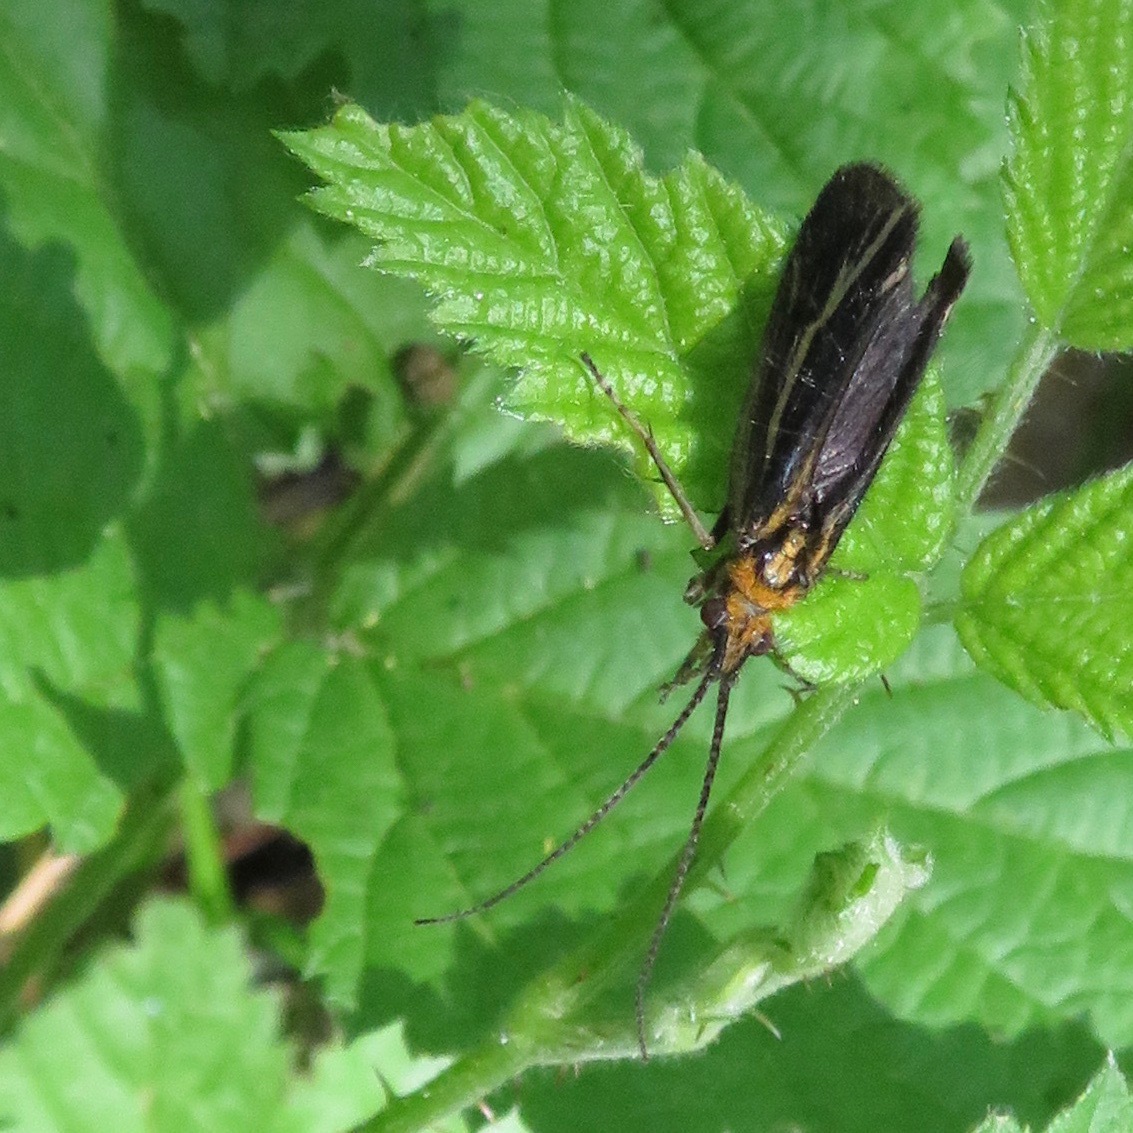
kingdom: Animalia
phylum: Arthropoda
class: Insecta
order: Trichoptera
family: Odontoceridae
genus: Nerophilus
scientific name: Nerophilus californicus
